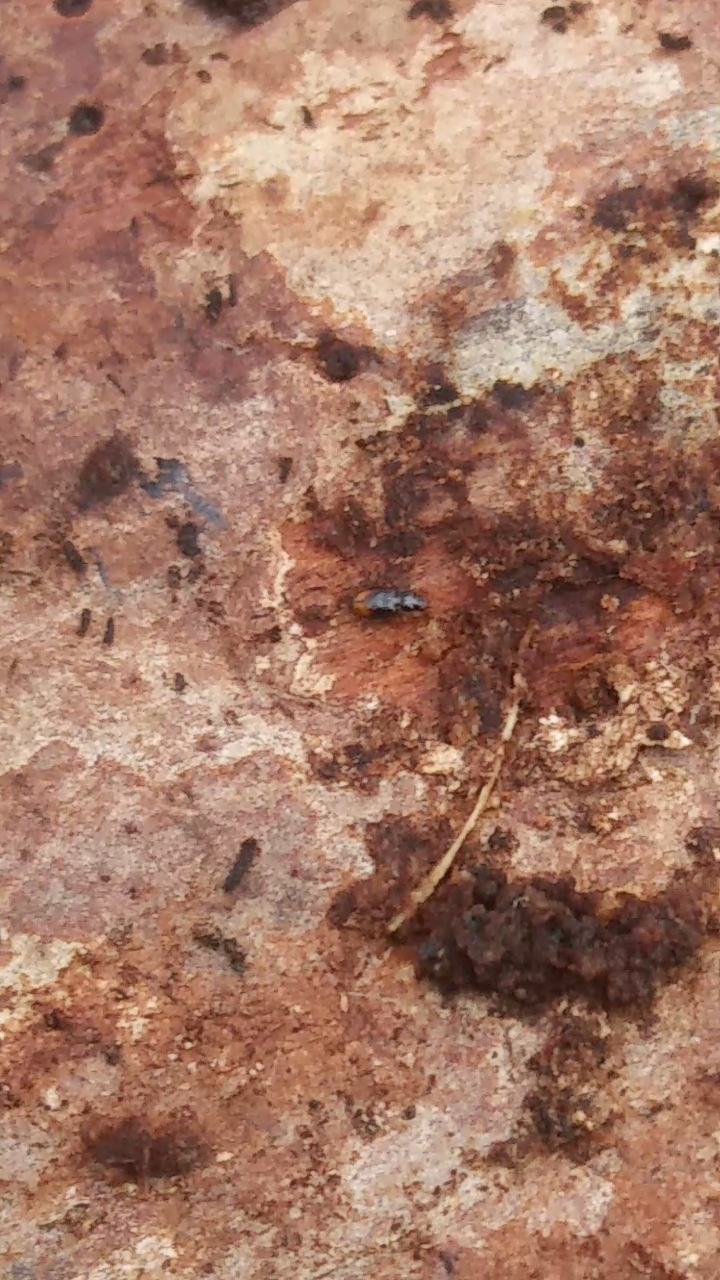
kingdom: Animalia
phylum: Arthropoda
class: Insecta
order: Coleoptera
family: Carabidae
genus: Mioptachys
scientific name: Mioptachys flavicauda
